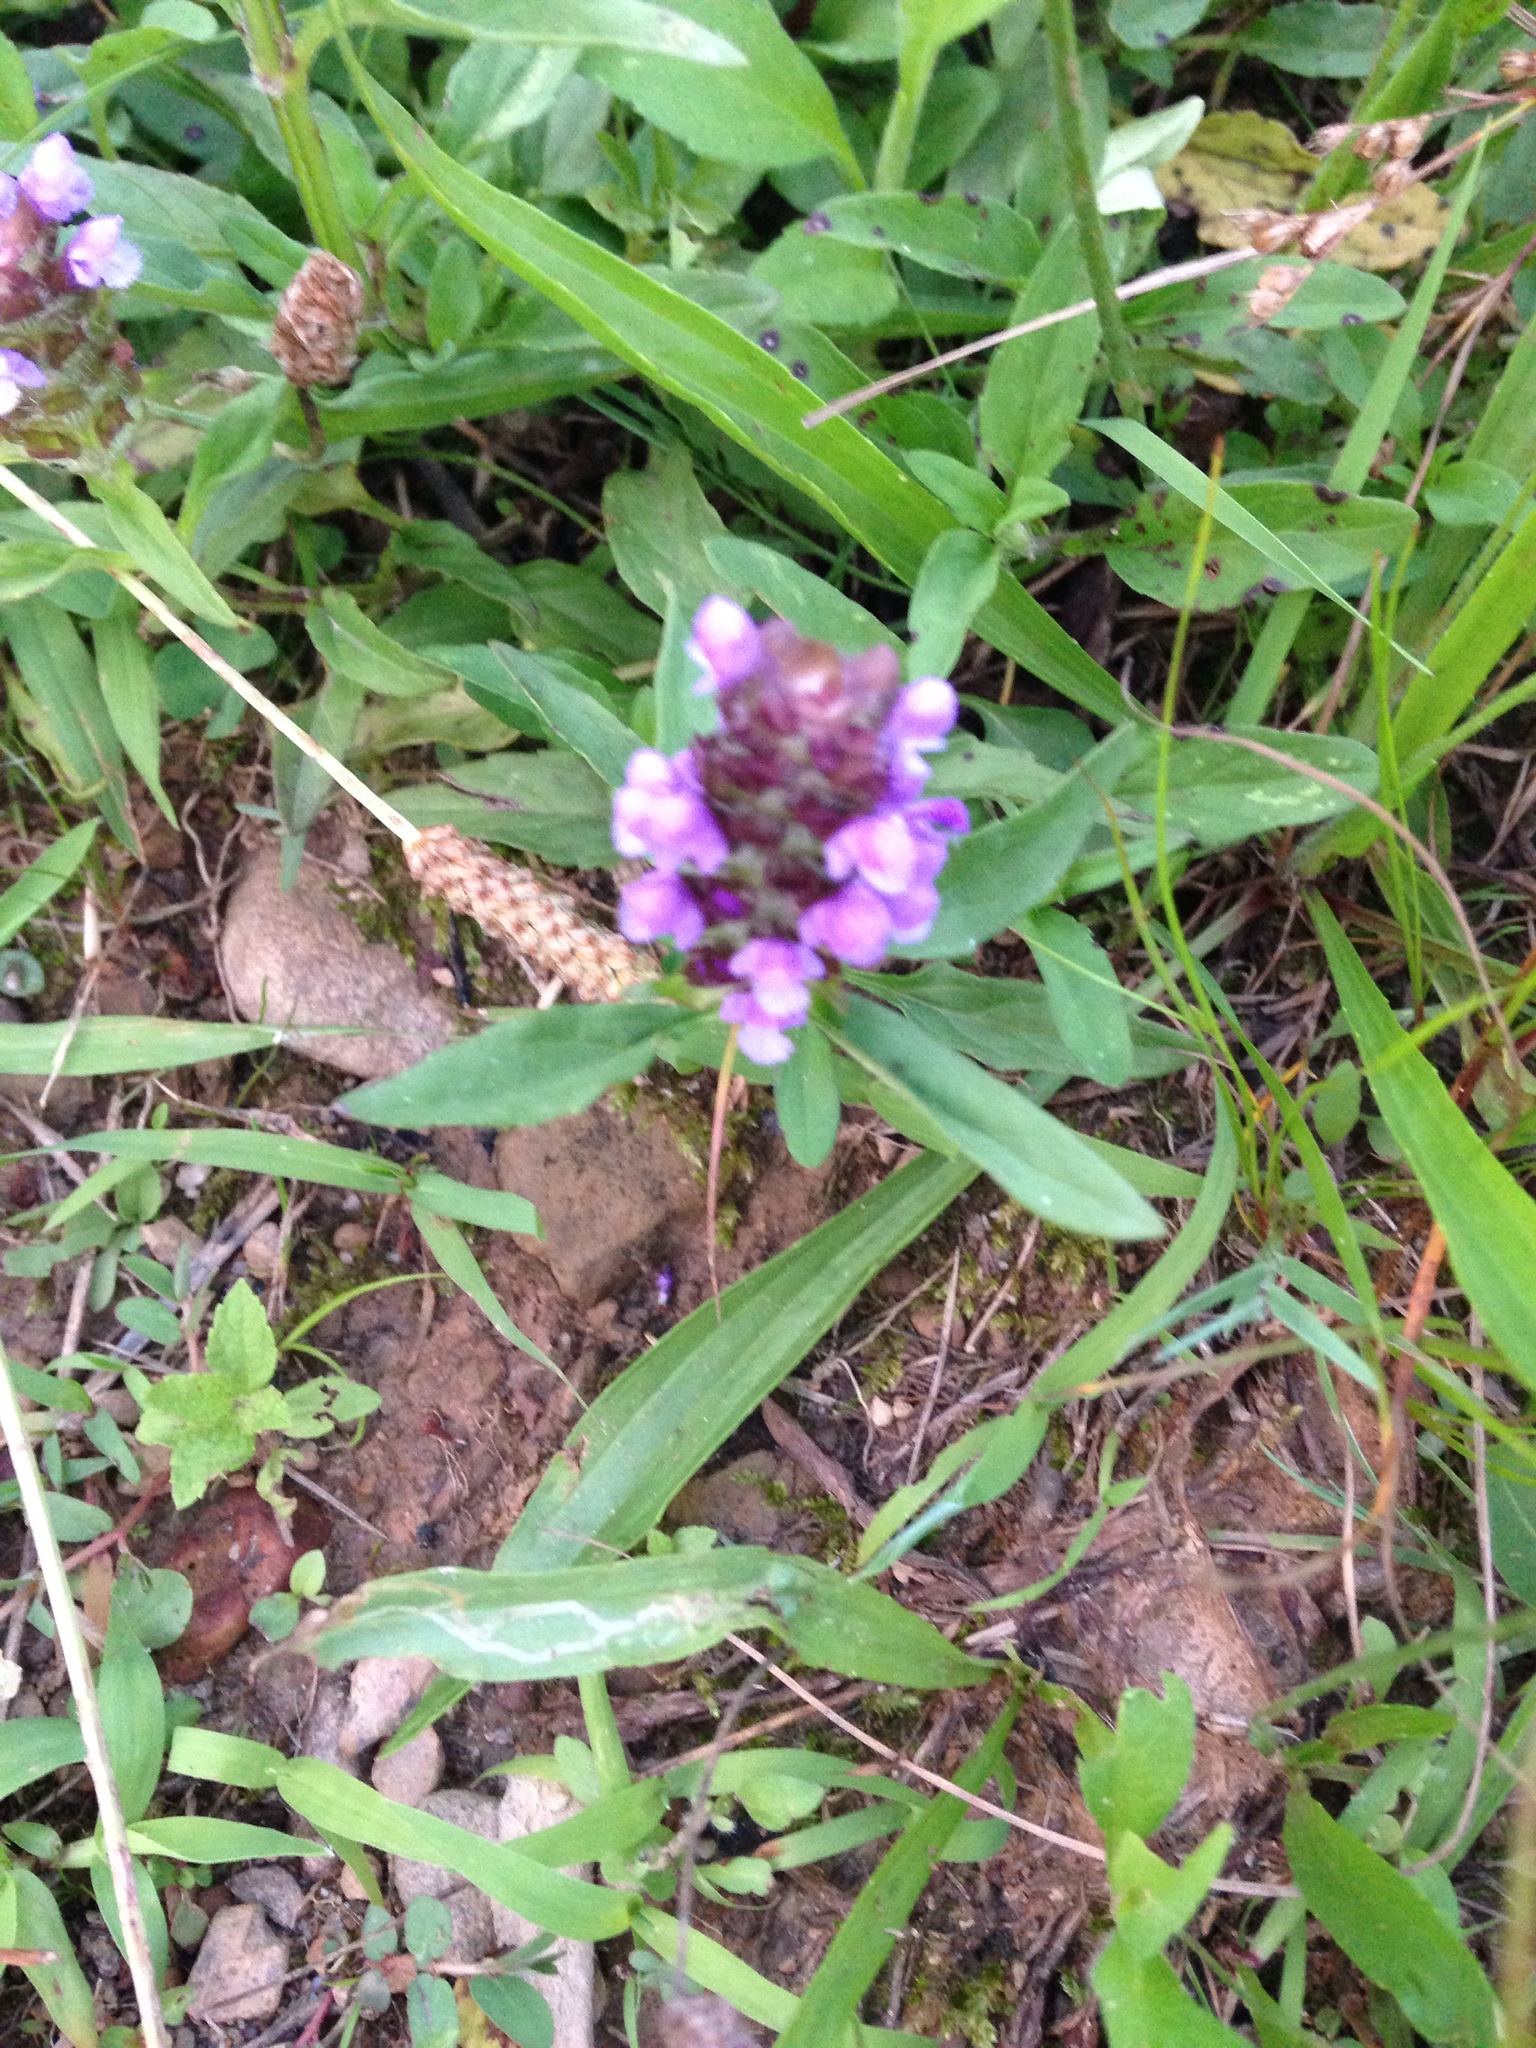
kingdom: Plantae
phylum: Tracheophyta
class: Magnoliopsida
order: Lamiales
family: Lamiaceae
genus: Prunella
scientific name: Prunella vulgaris
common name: Heal-all
